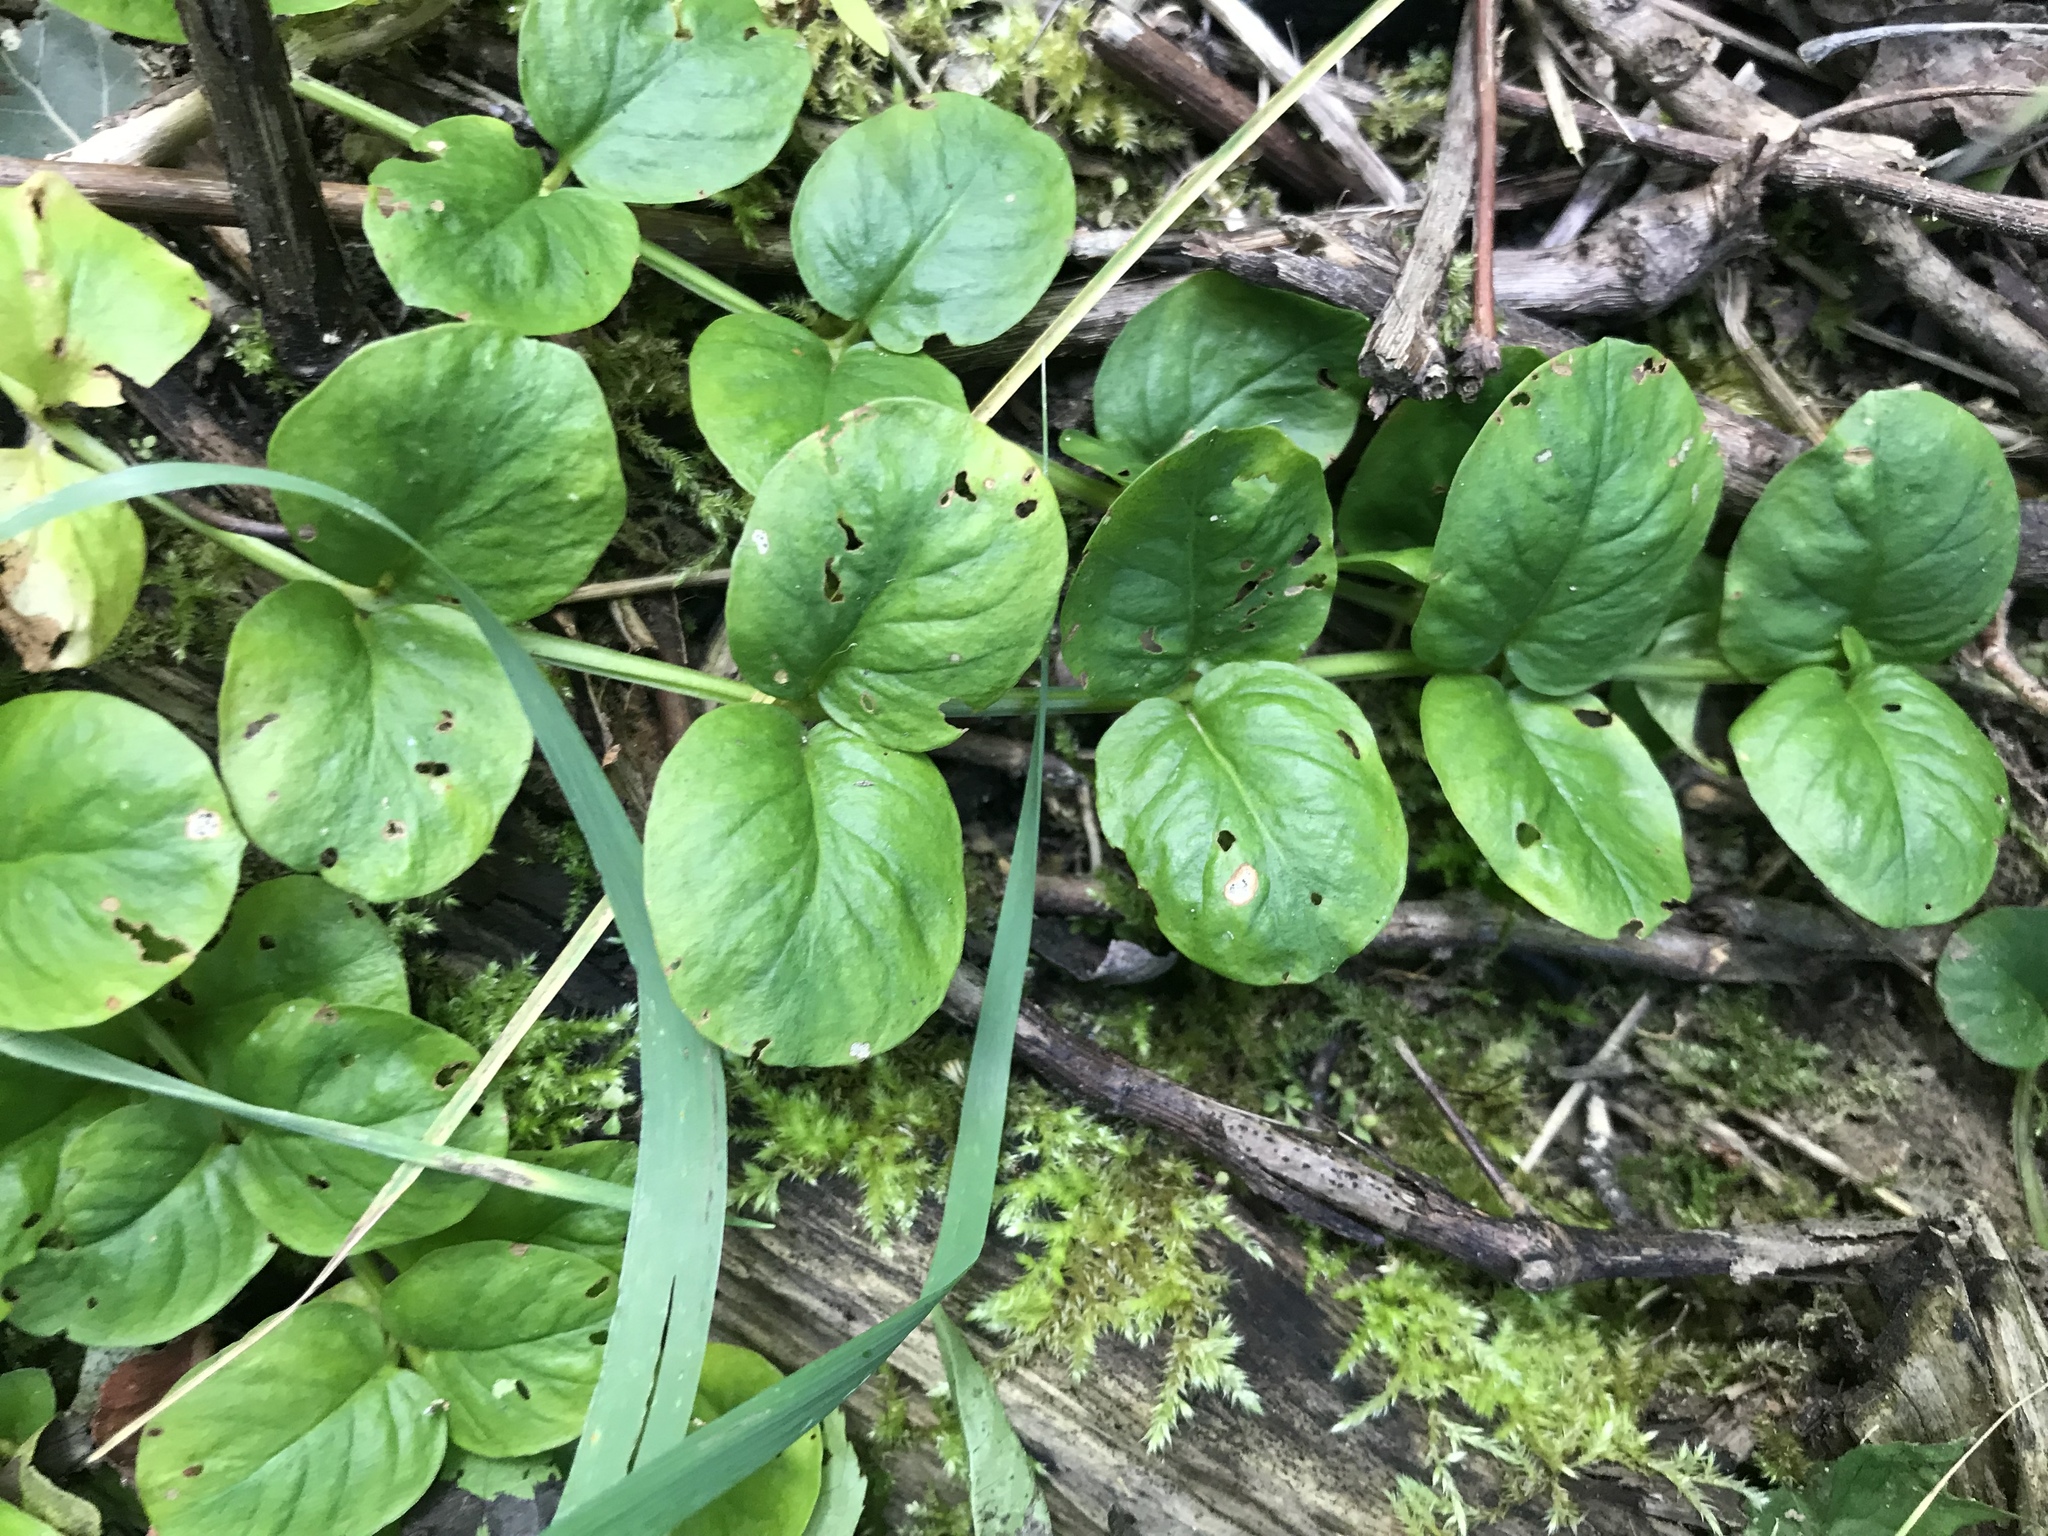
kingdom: Plantae
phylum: Tracheophyta
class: Magnoliopsida
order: Ericales
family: Primulaceae
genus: Lysimachia
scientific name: Lysimachia nummularia
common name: Moneywort
